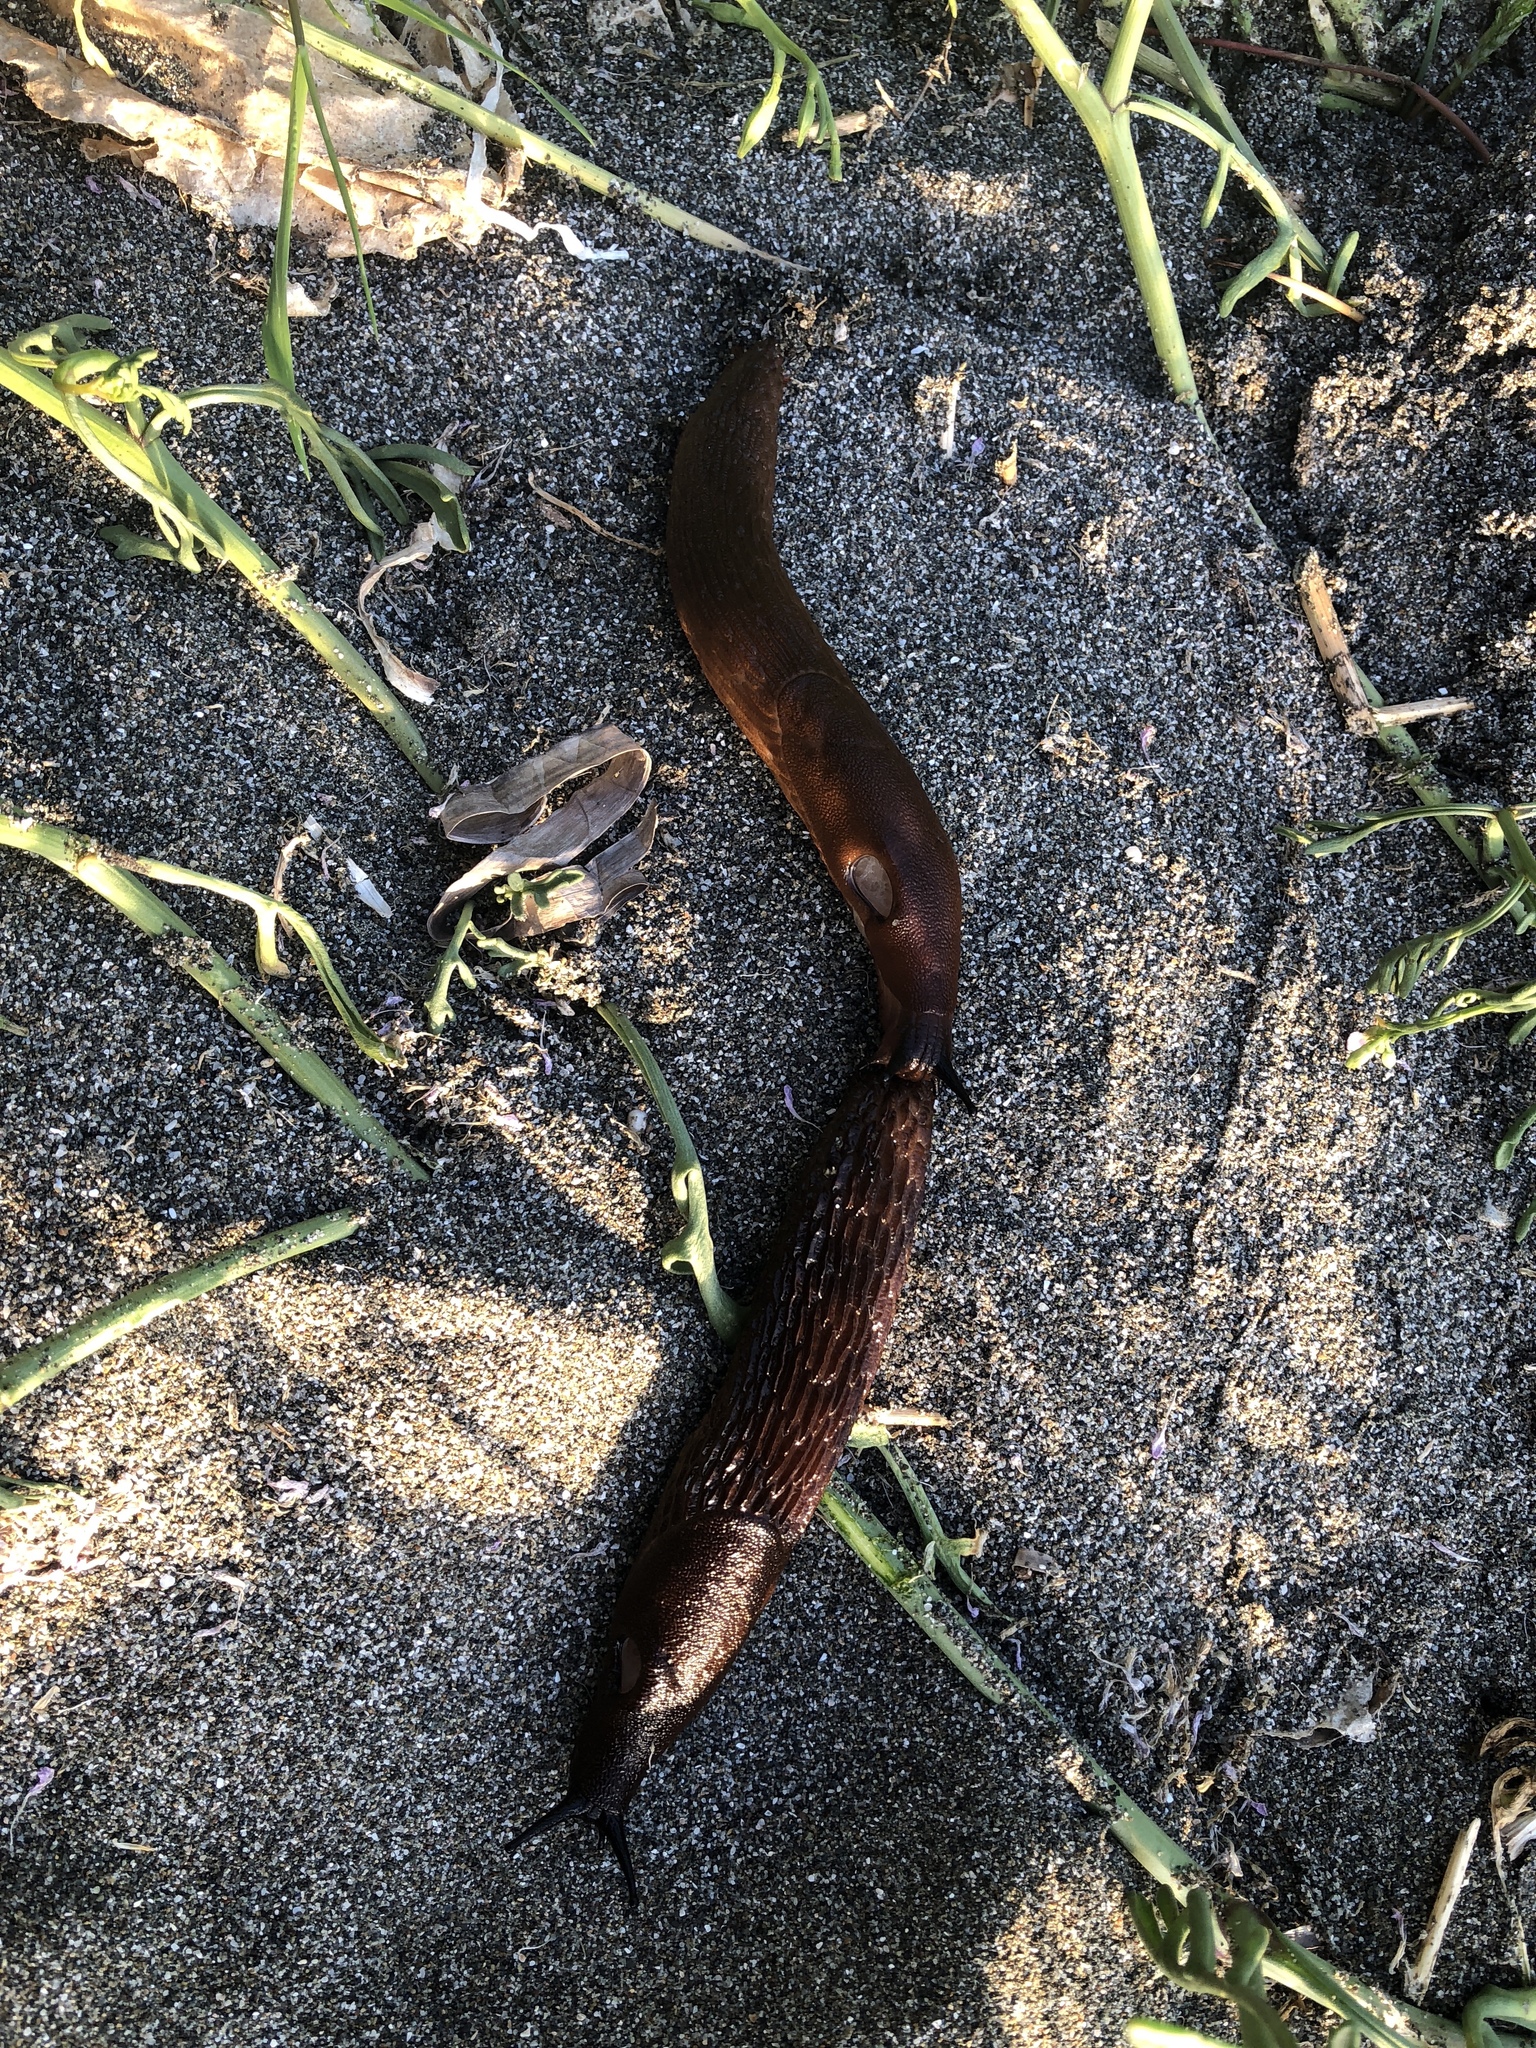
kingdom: Animalia
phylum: Mollusca
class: Gastropoda
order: Stylommatophora
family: Arionidae
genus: Arion
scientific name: Arion rufus
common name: Chocolate arion
